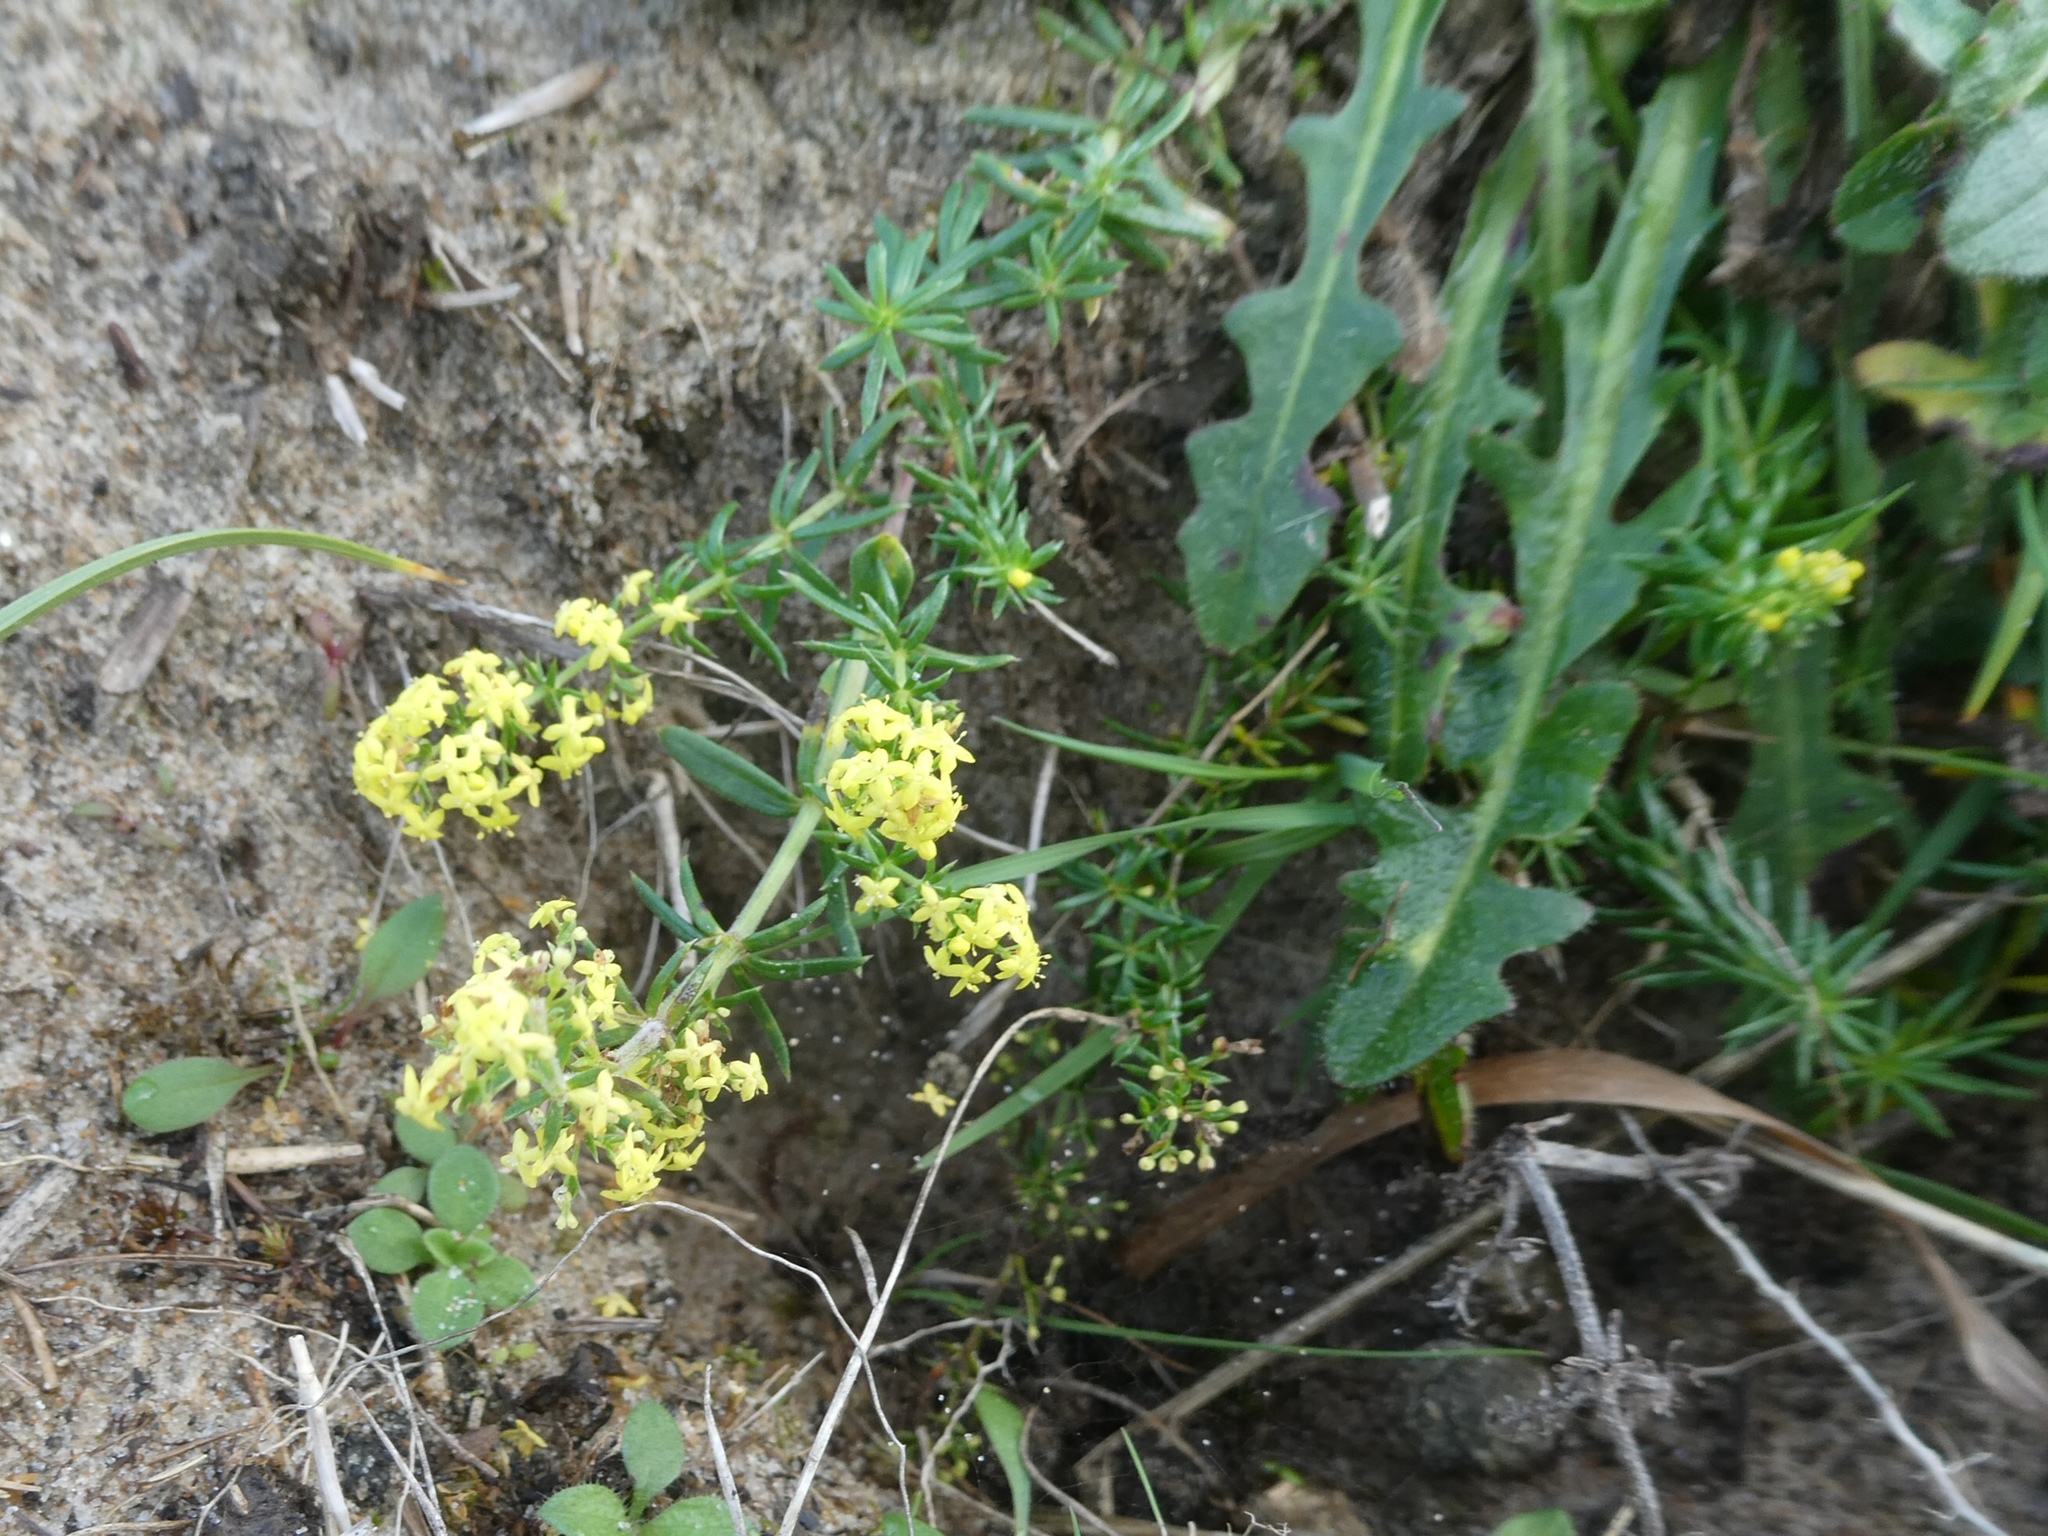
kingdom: Plantae
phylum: Tracheophyta
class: Magnoliopsida
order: Gentianales
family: Rubiaceae
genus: Galium
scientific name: Galium verum
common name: Lady's bedstraw
